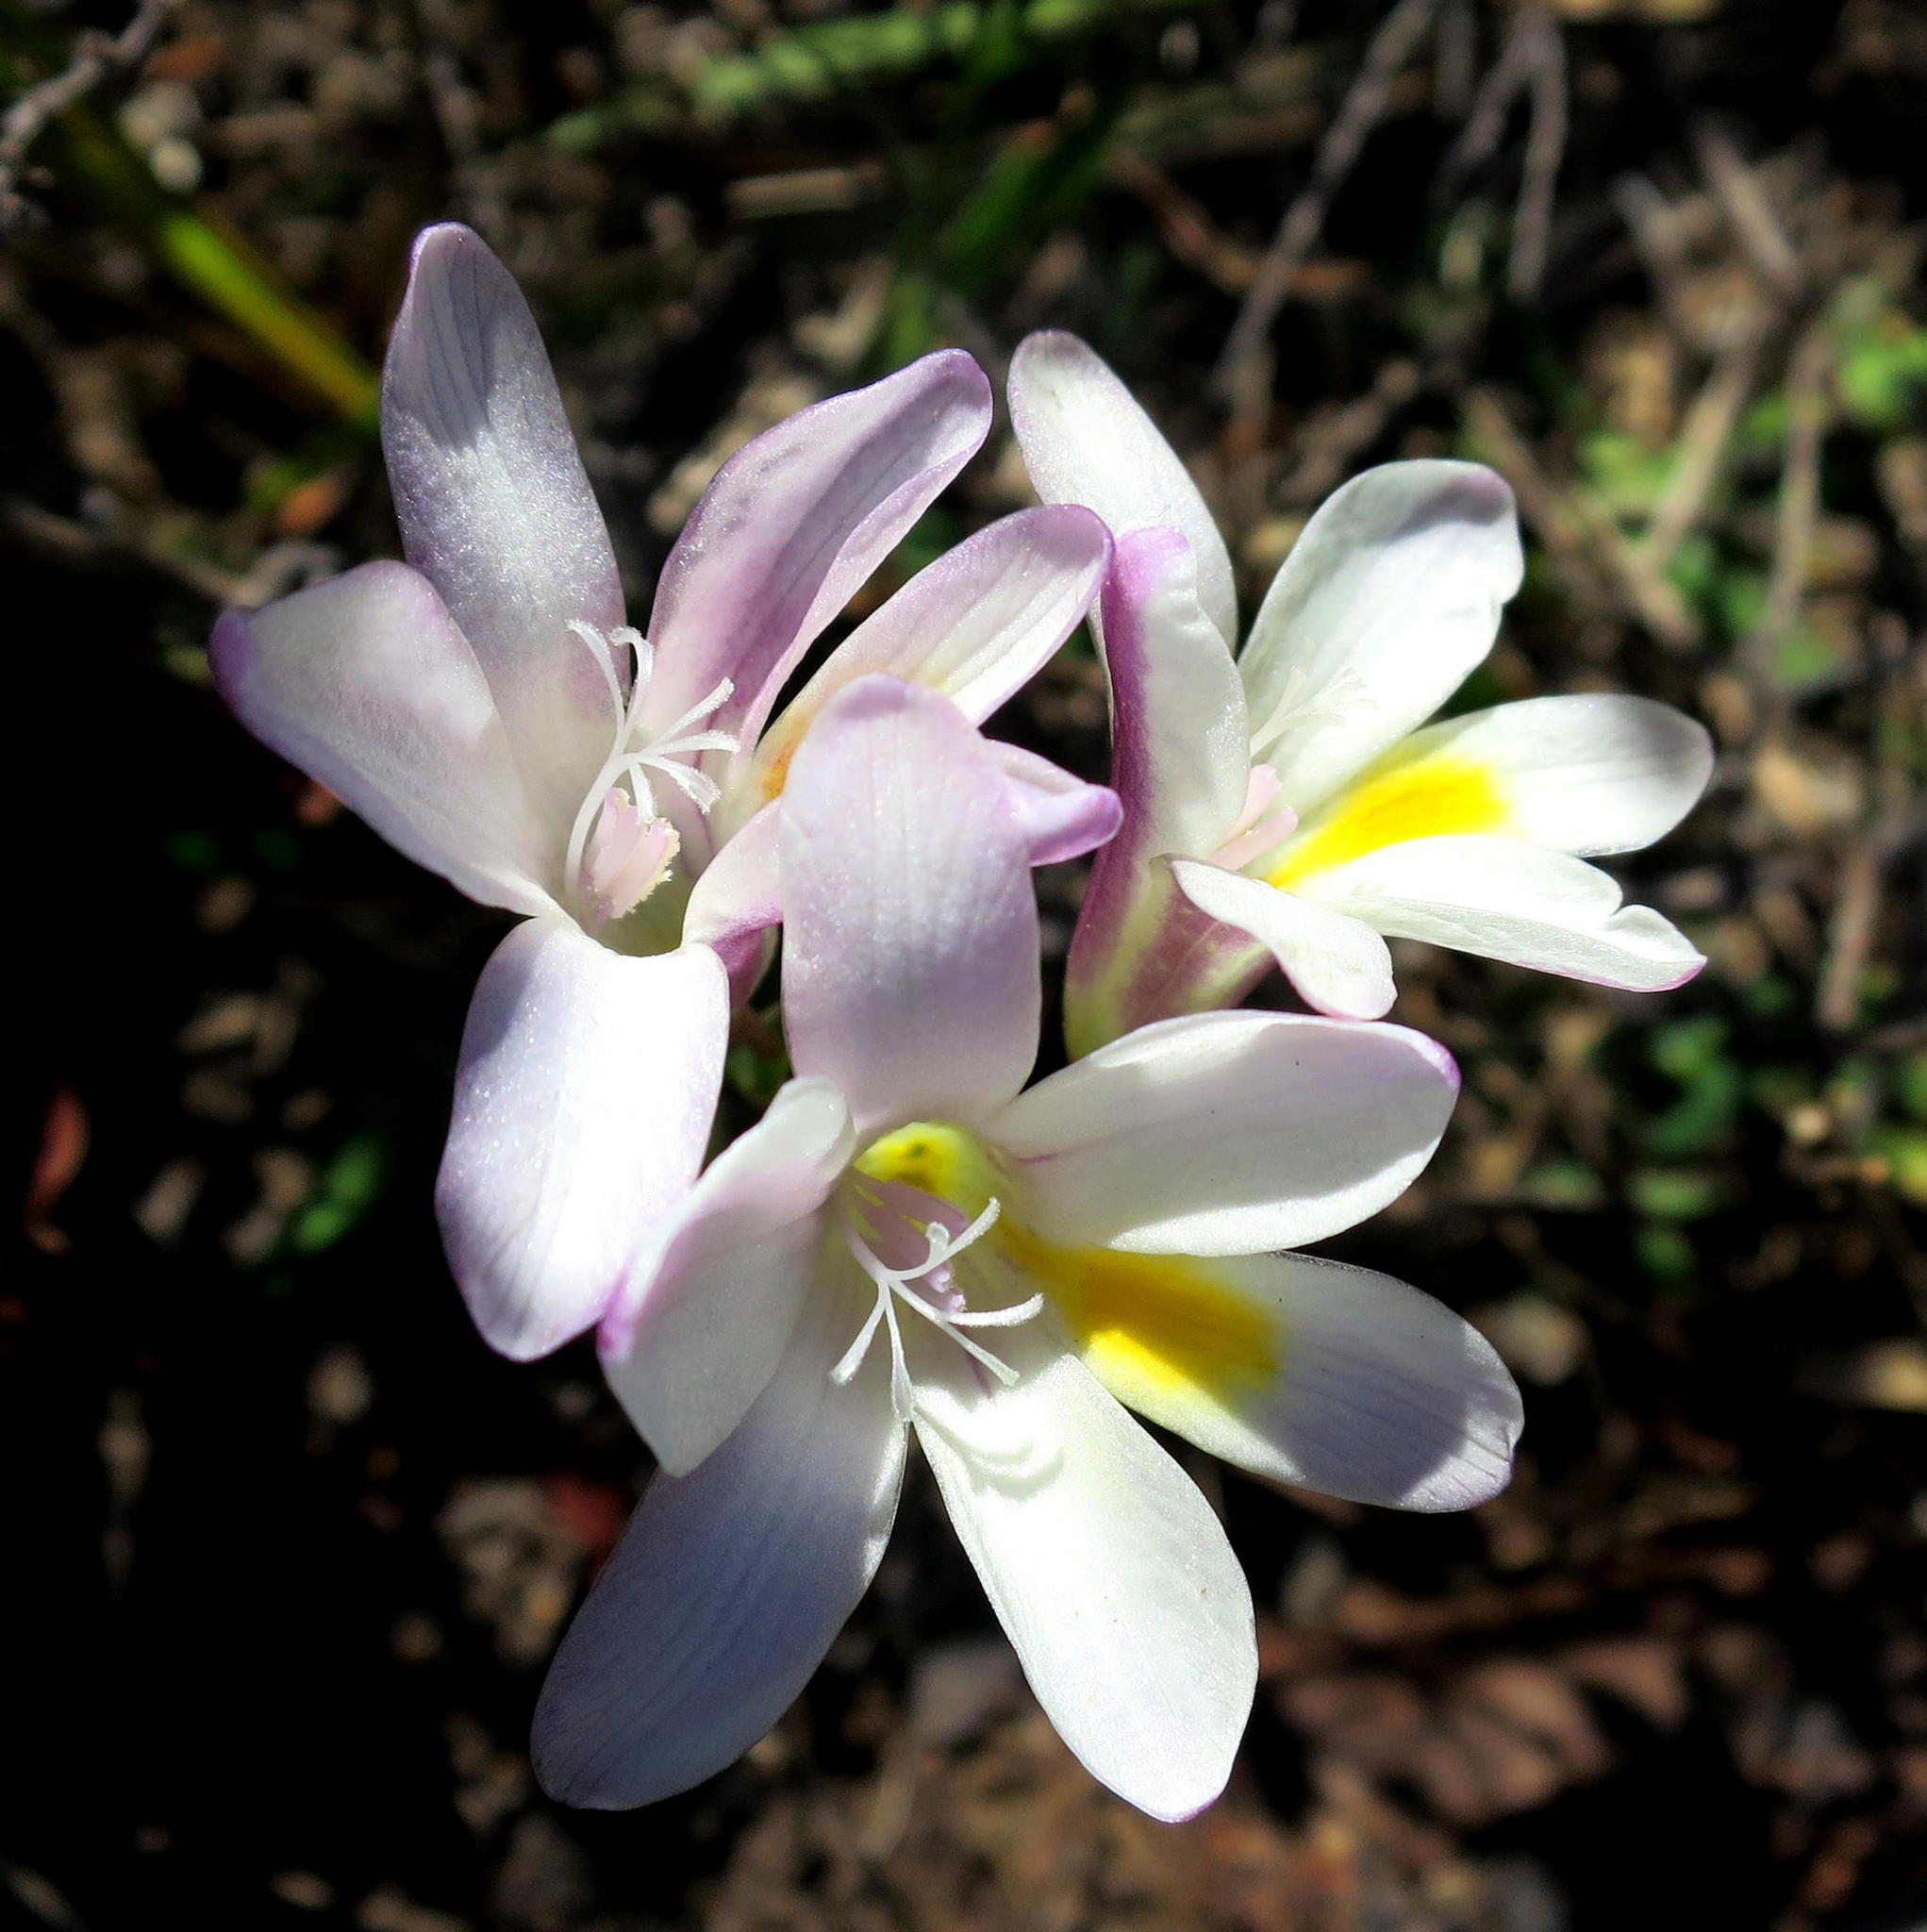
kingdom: Plantae
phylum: Tracheophyta
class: Liliopsida
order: Asparagales
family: Iridaceae
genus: Freesia
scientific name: Freesia leichtlinii
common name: Freesia
